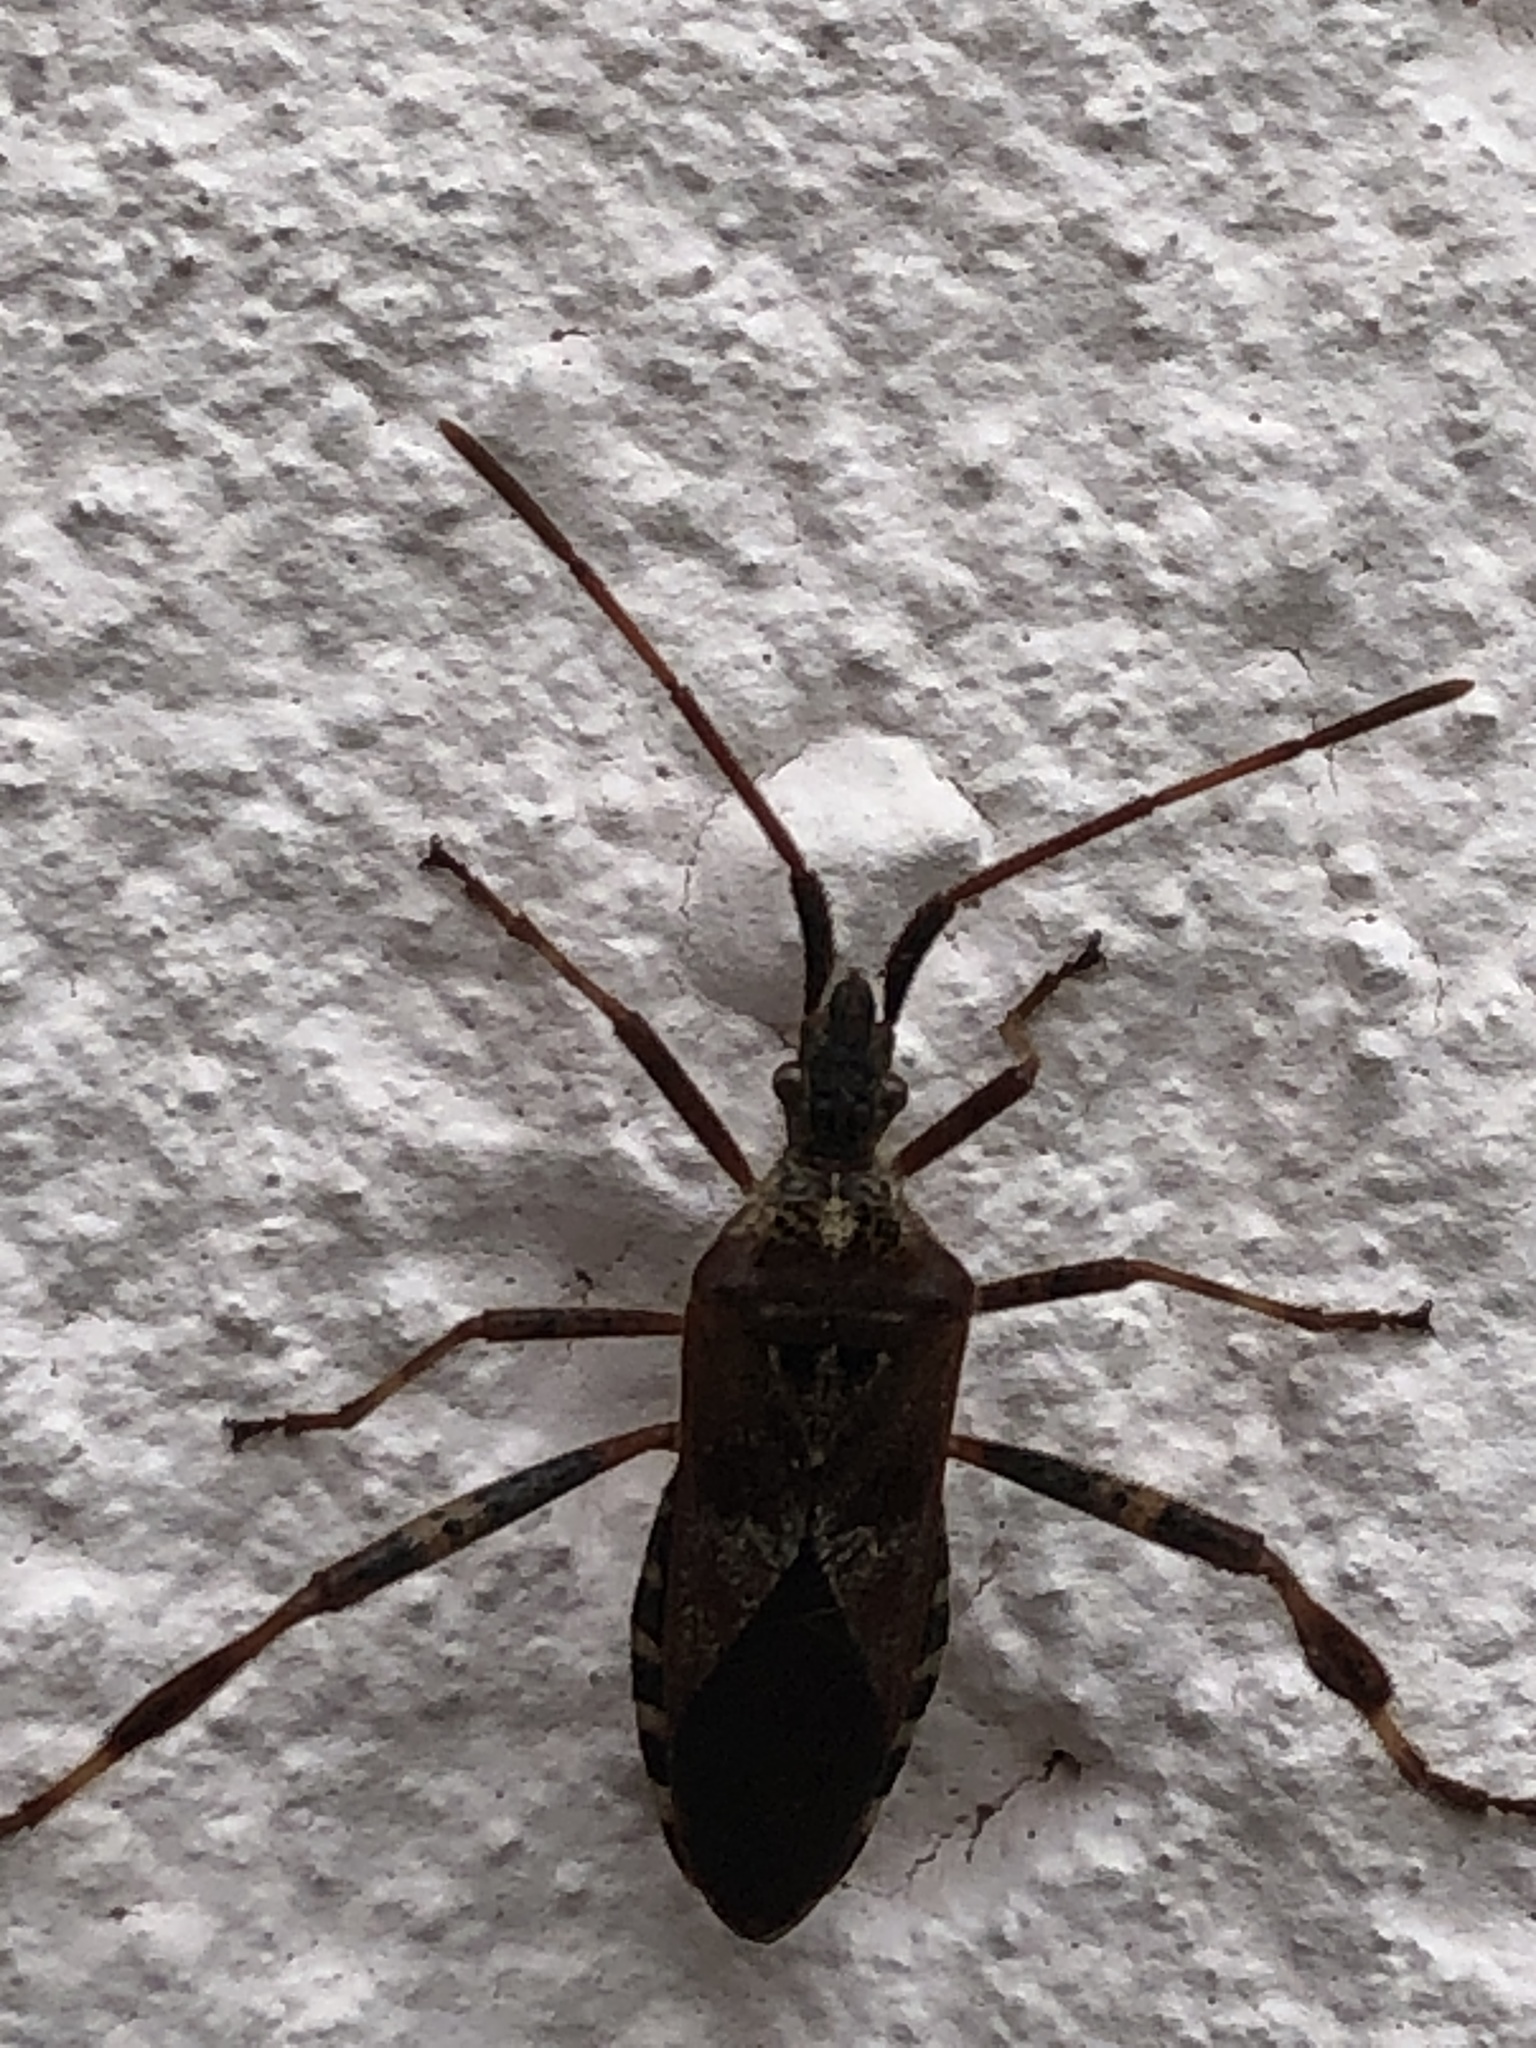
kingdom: Animalia
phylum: Arthropoda
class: Insecta
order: Hemiptera
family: Coreidae
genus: Leptoglossus
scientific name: Leptoglossus occidentalis
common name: Western conifer-seed bug
